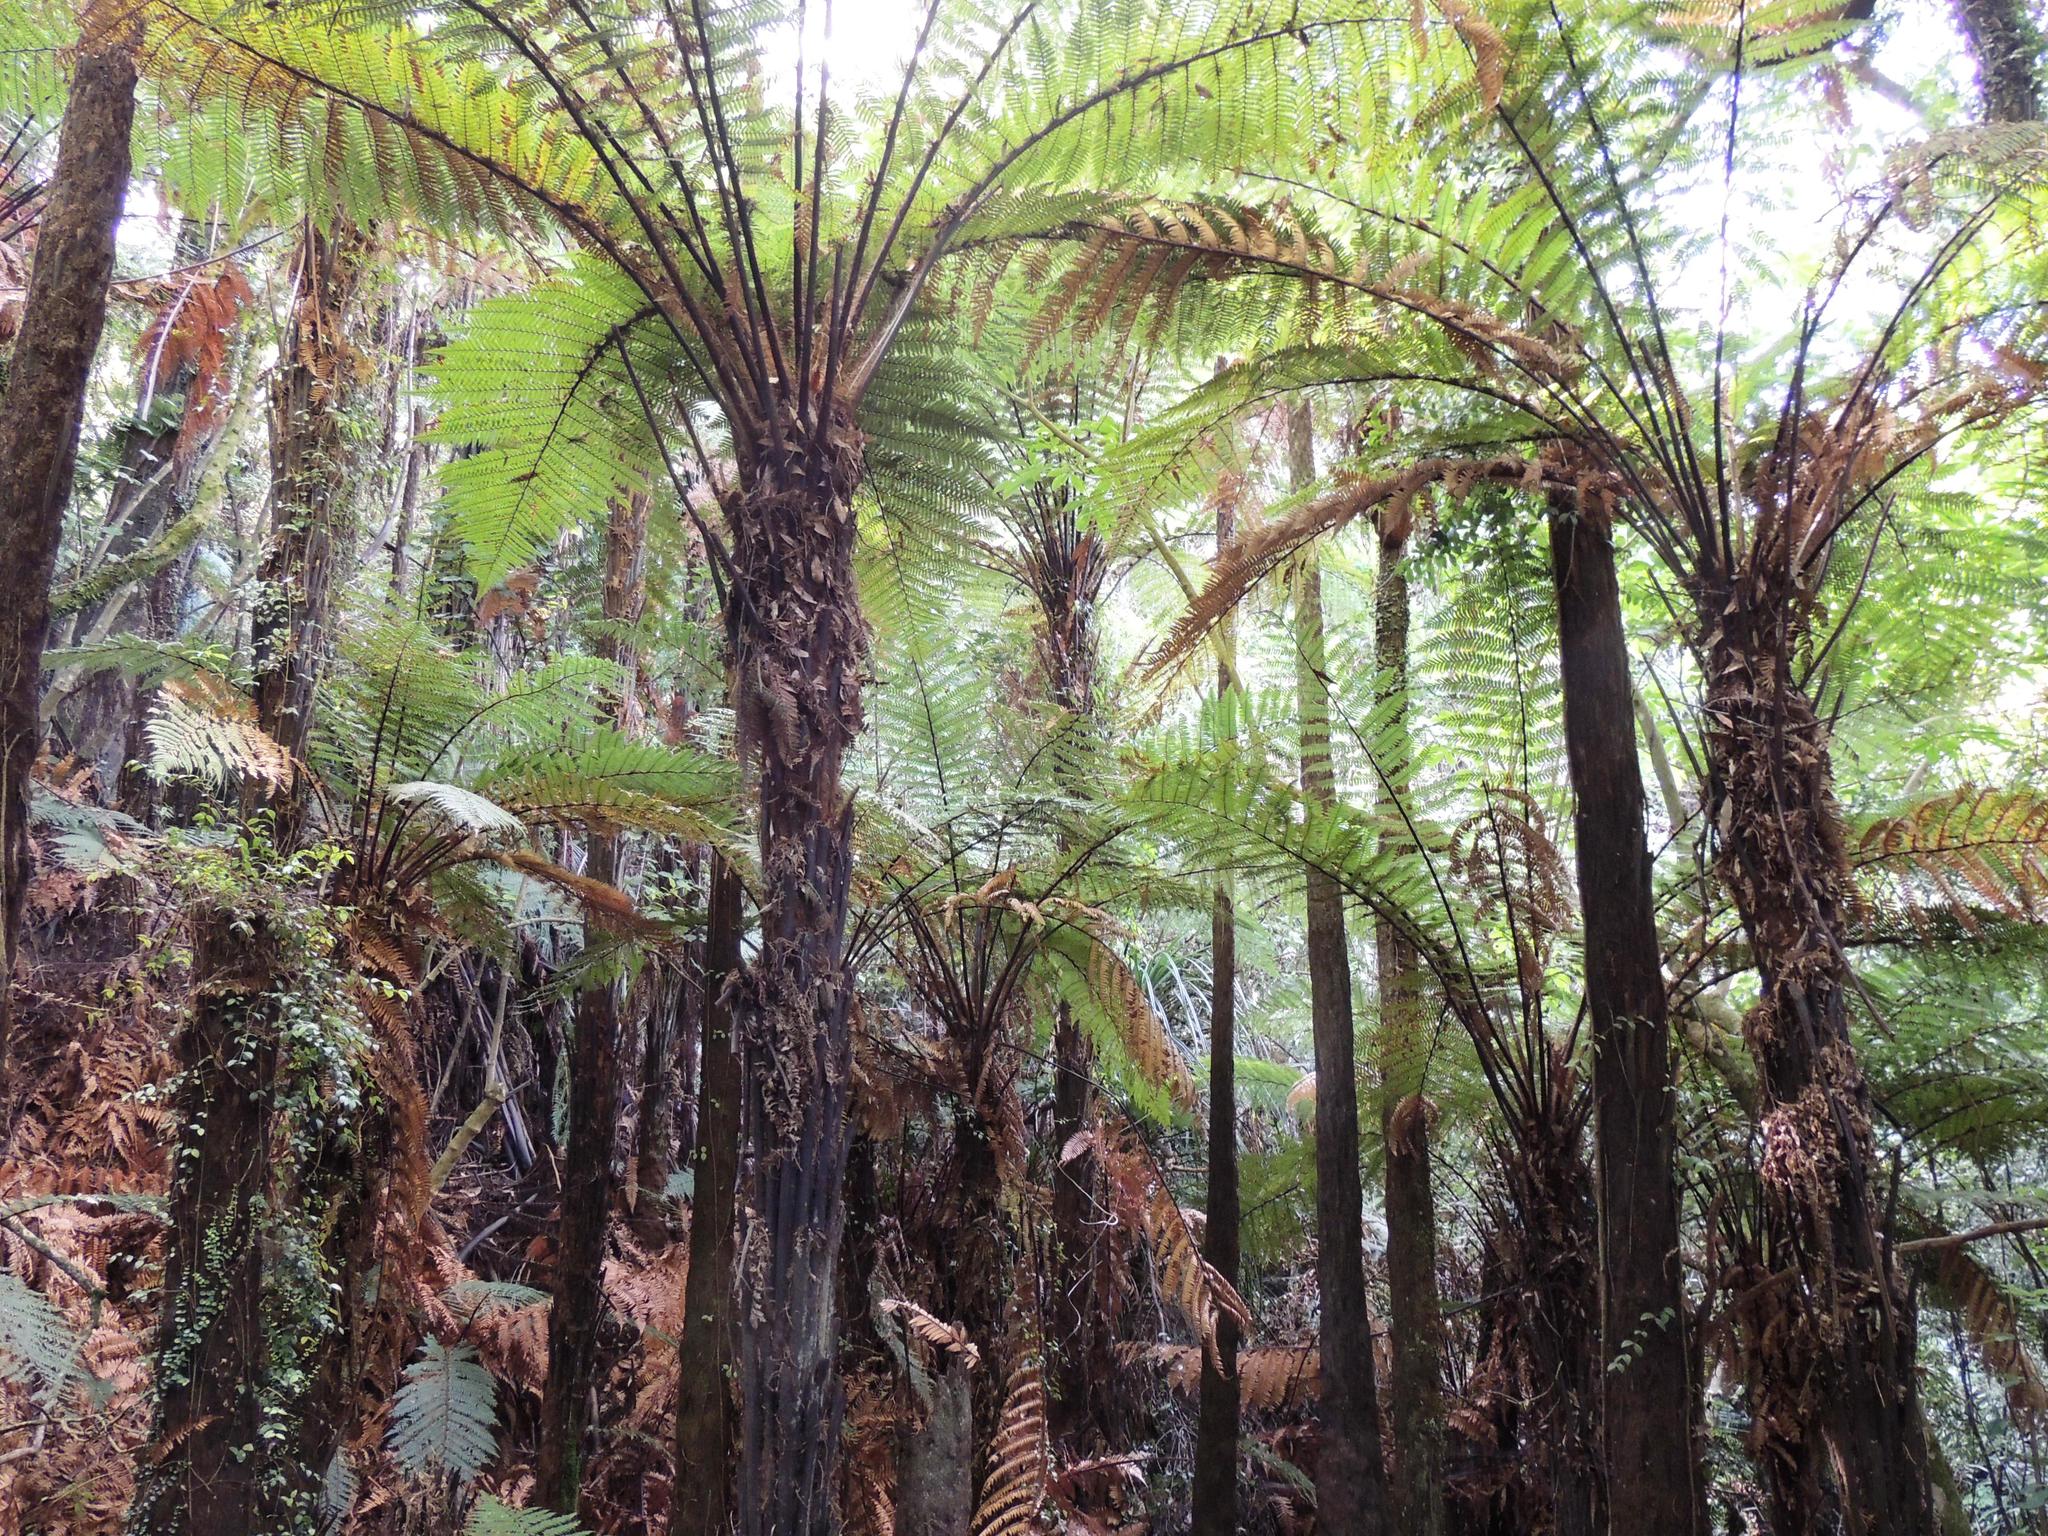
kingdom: Plantae
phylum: Tracheophyta
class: Polypodiopsida
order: Cyatheales
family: Dicksoniaceae
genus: Dicksonia
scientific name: Dicksonia squarrosa
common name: Hard treefern
